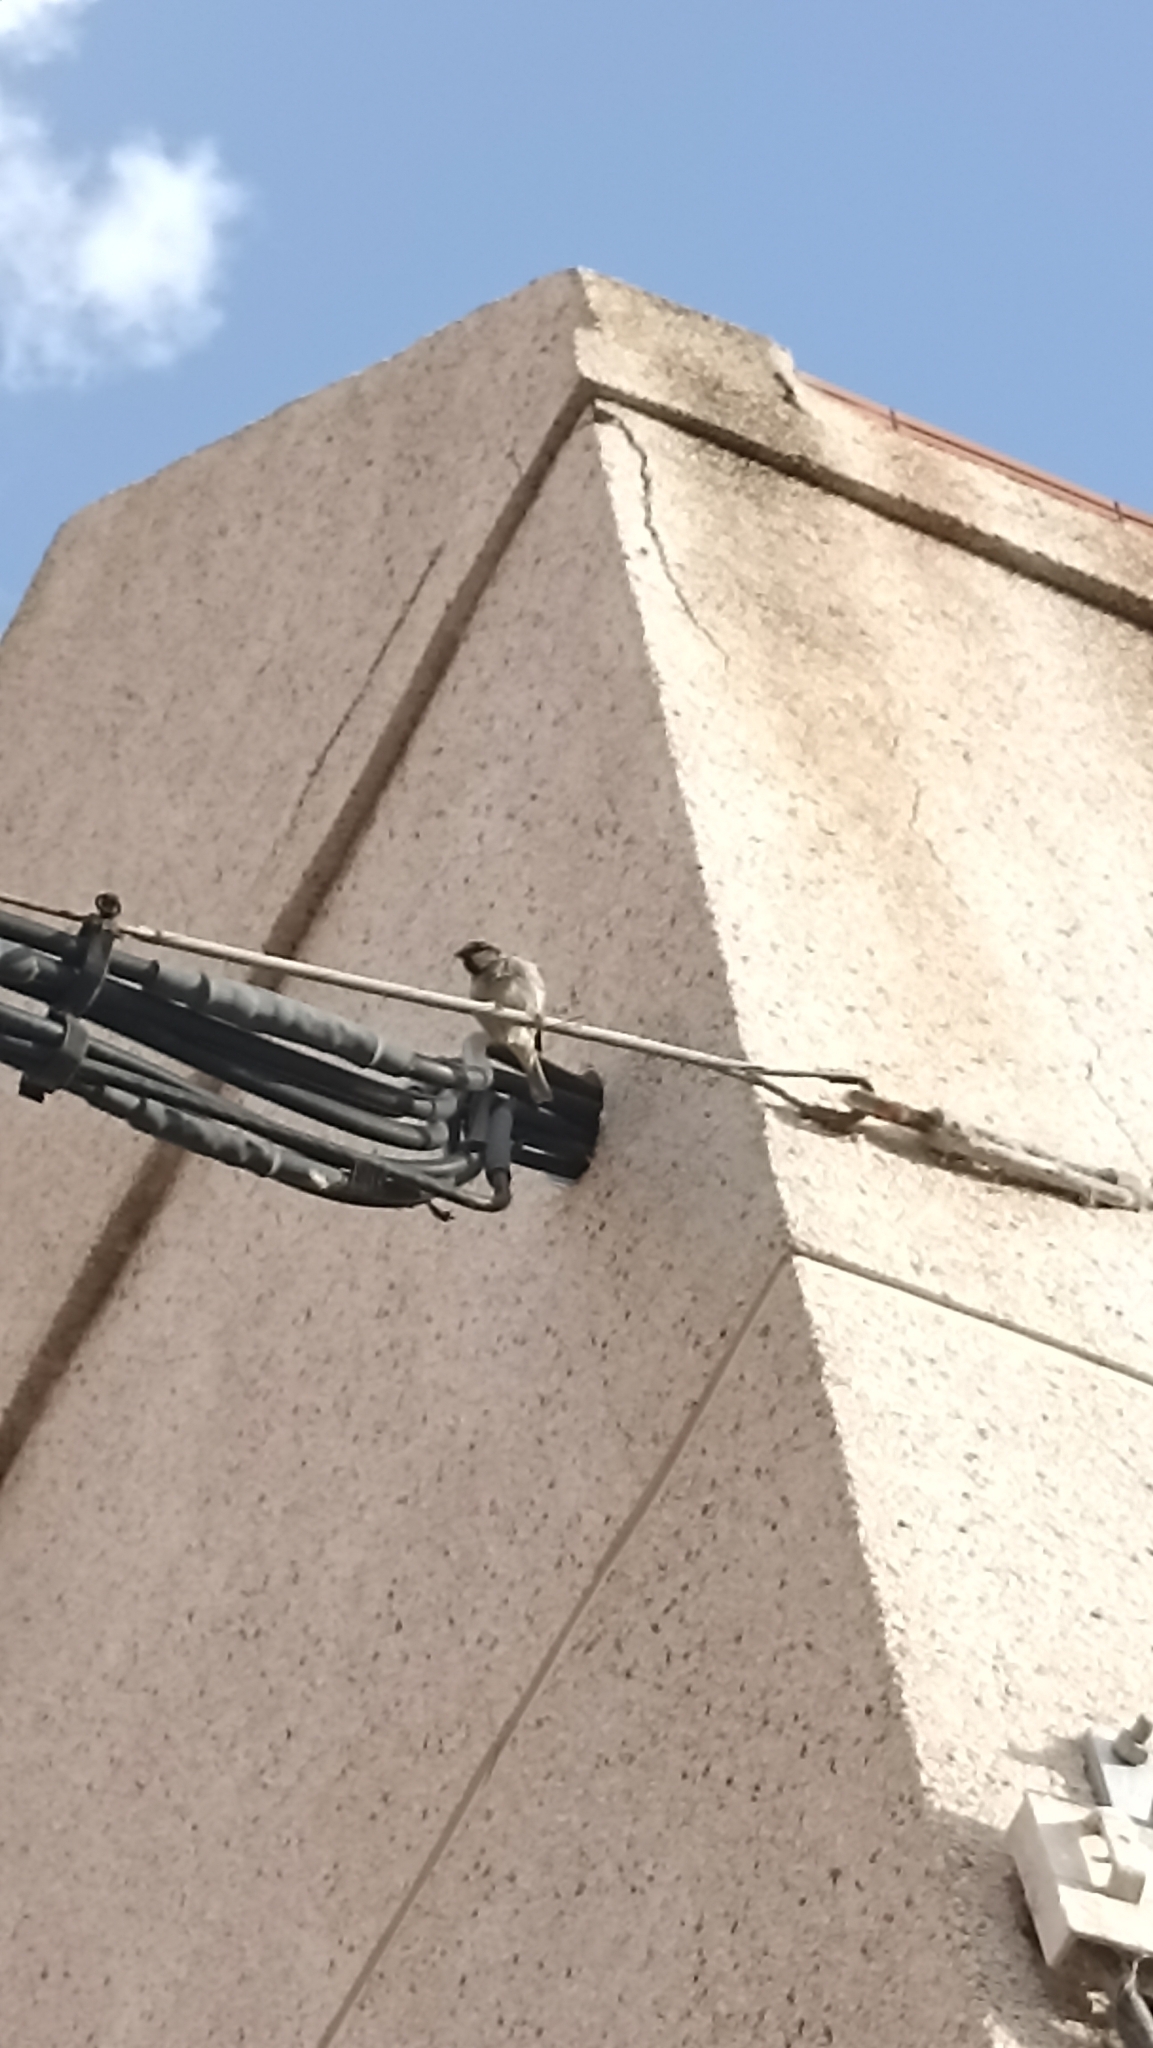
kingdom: Animalia
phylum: Chordata
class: Aves
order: Passeriformes
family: Passeridae
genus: Passer
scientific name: Passer hispaniolensis
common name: Spanish sparrow
